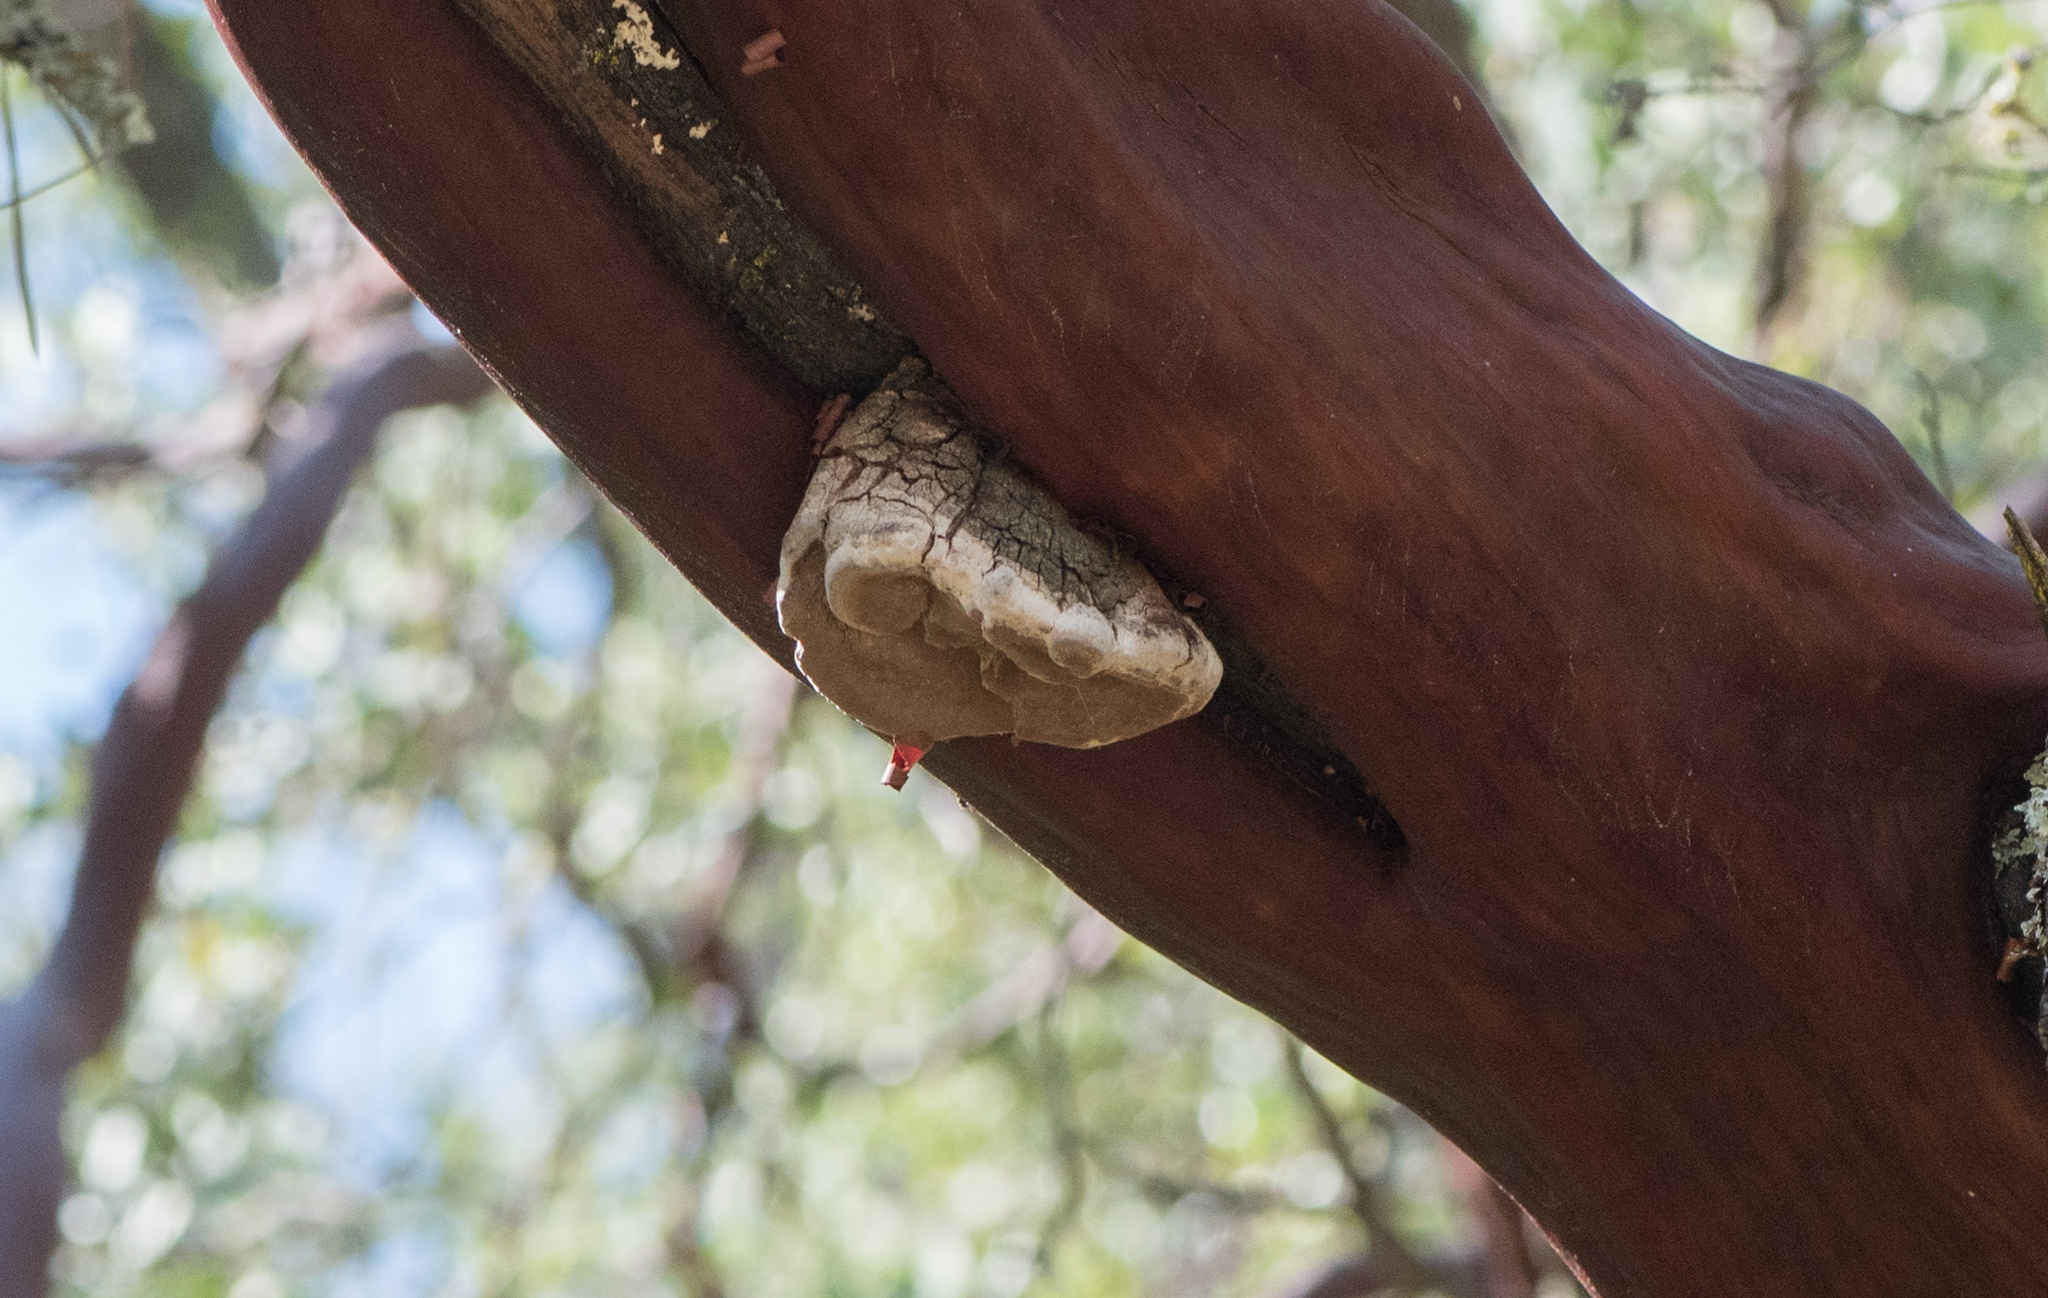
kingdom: Fungi
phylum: Basidiomycota
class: Agaricomycetes
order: Polyporales
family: Polyporaceae
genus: Fomes
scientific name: Fomes arctostaphyli
